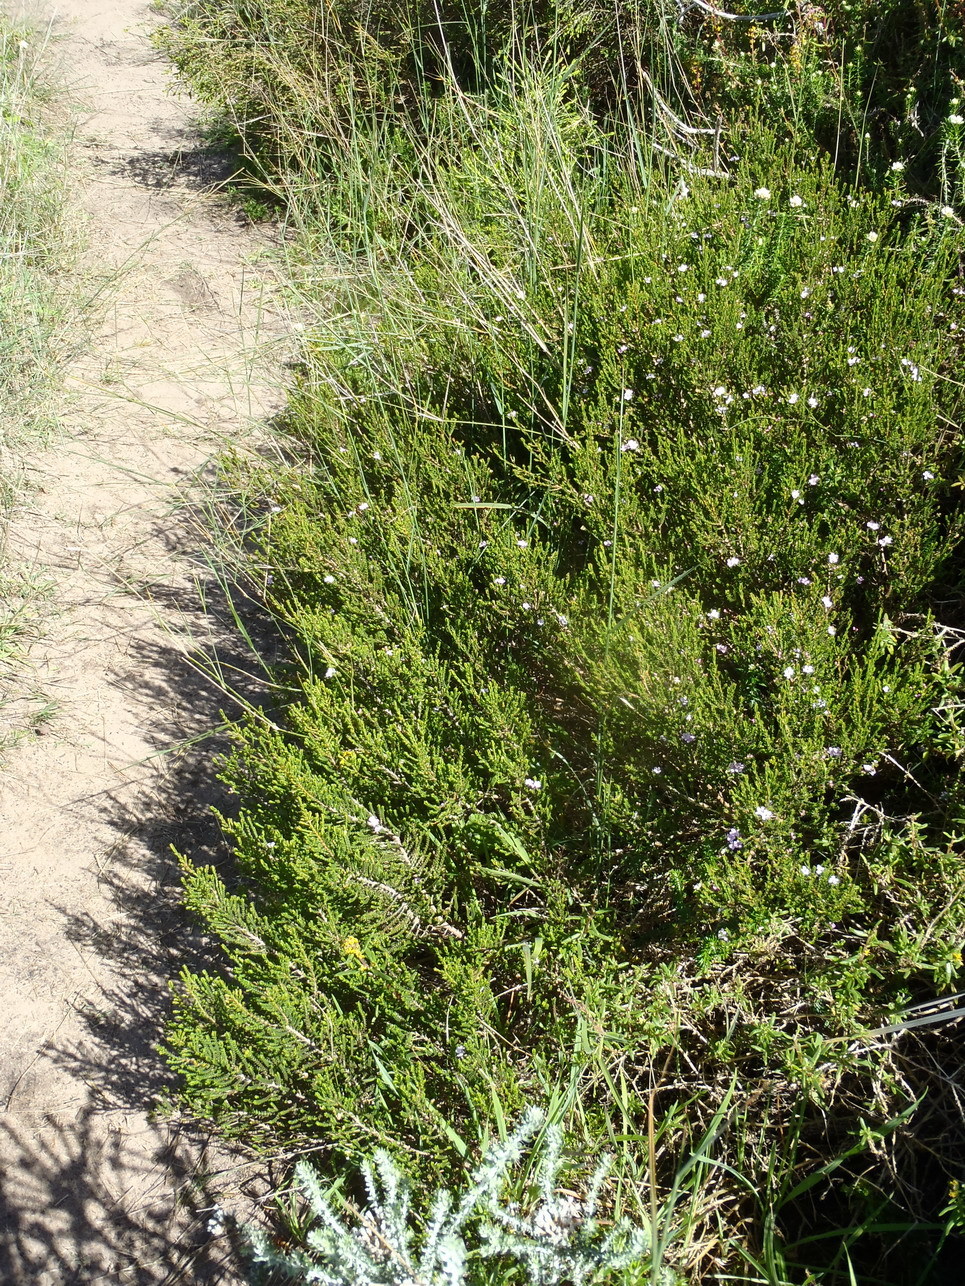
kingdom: Plantae
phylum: Tracheophyta
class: Magnoliopsida
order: Sapindales
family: Rutaceae
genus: Euchaetis
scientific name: Euchaetis albertiniana
